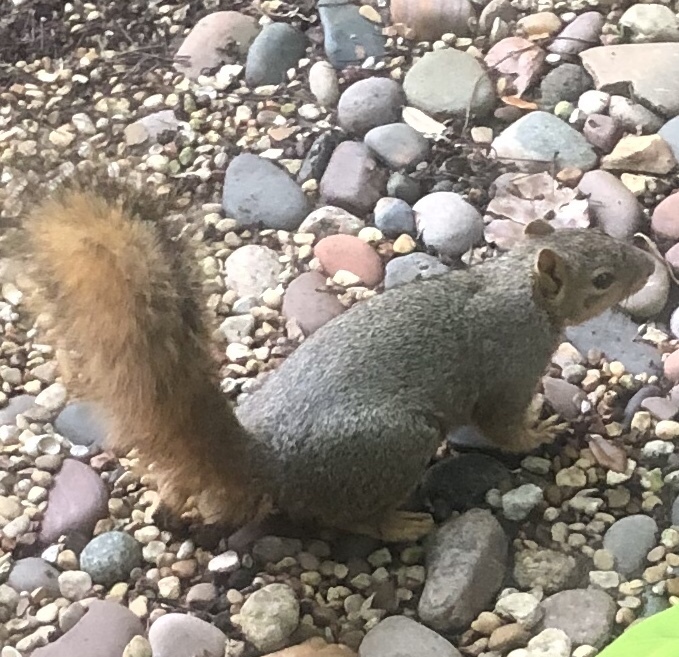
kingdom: Animalia
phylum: Chordata
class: Mammalia
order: Rodentia
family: Sciuridae
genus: Sciurus
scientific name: Sciurus niger
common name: Fox squirrel
